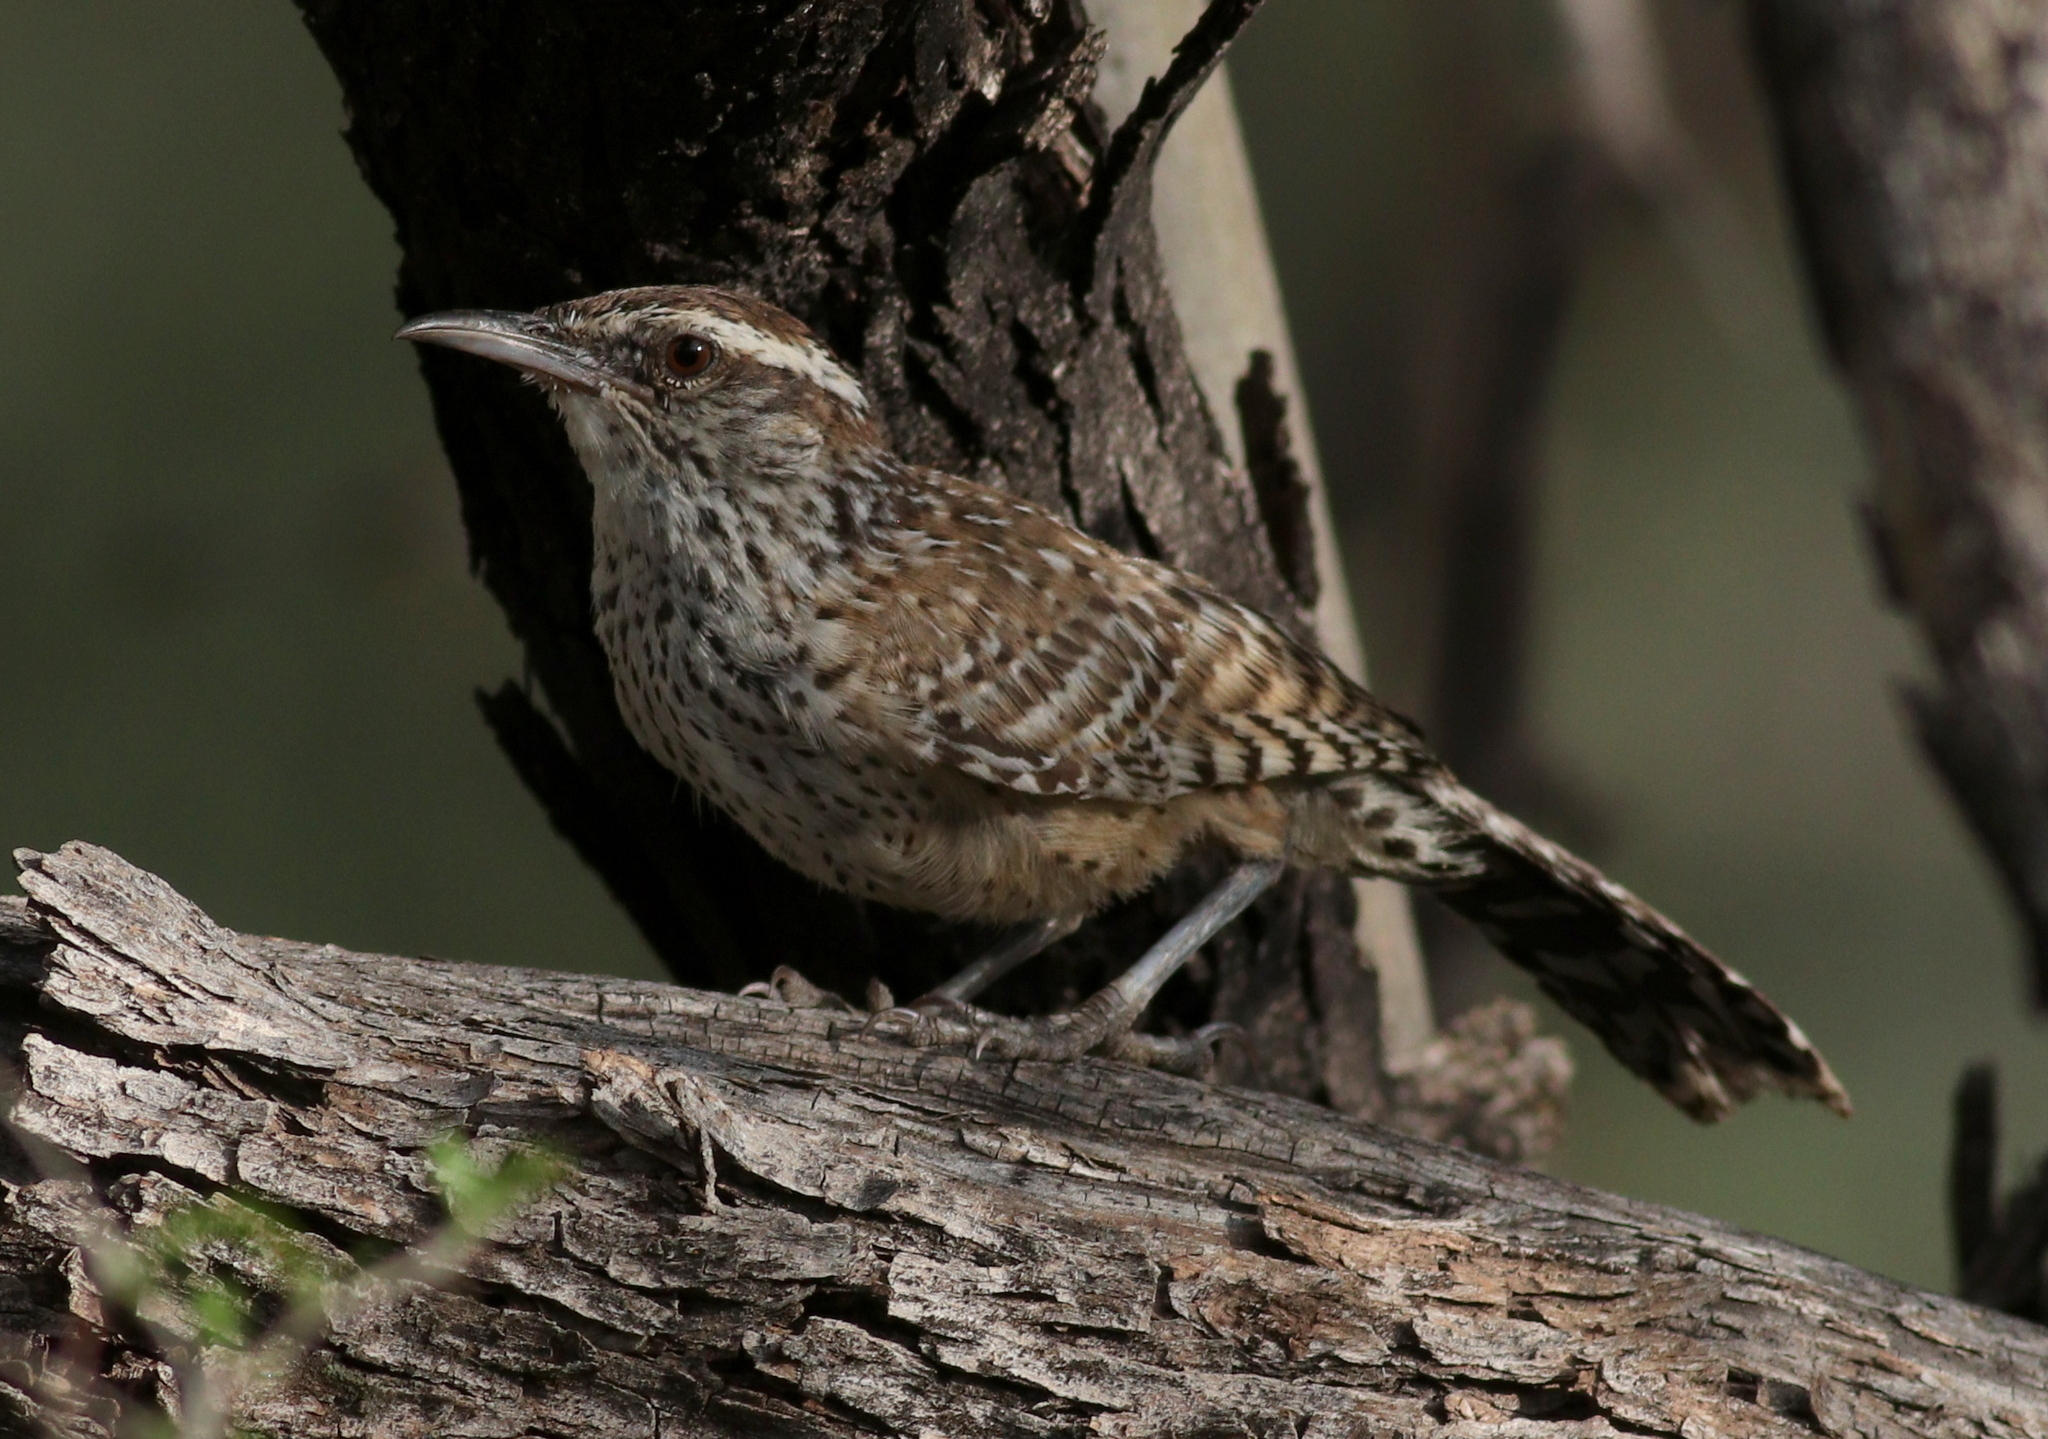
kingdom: Animalia
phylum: Chordata
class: Aves
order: Passeriformes
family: Troglodytidae
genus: Campylorhynchus
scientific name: Campylorhynchus brunneicapillus
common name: Cactus wren
